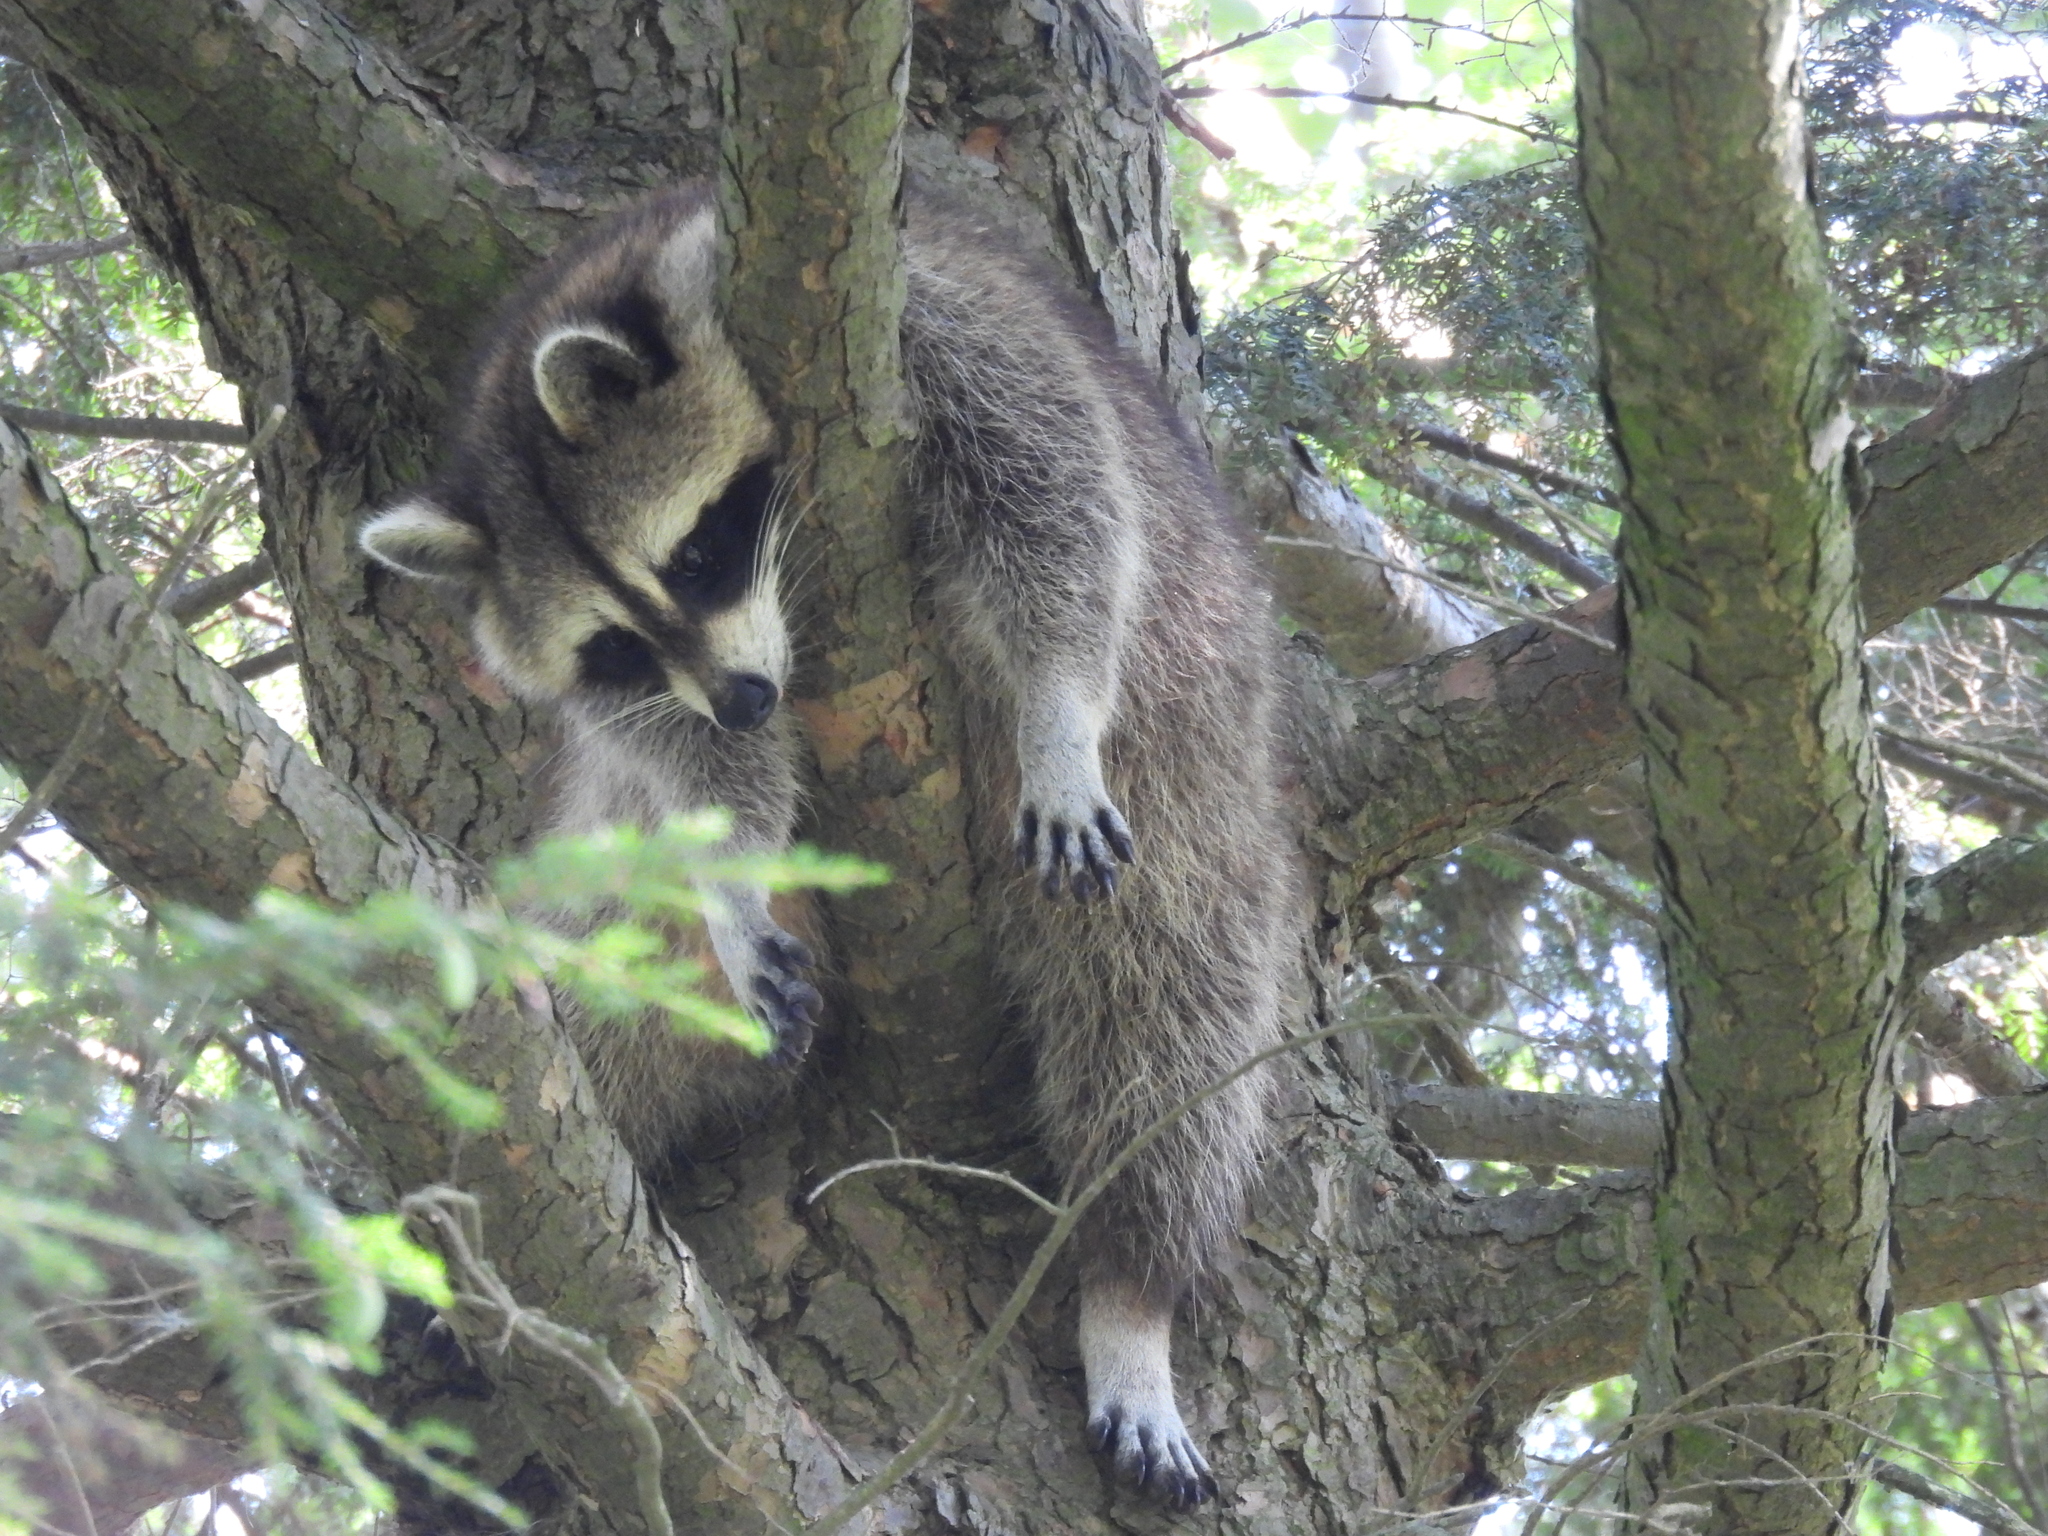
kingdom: Animalia
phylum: Chordata
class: Mammalia
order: Carnivora
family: Procyonidae
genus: Procyon
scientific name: Procyon lotor
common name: Raccoon
